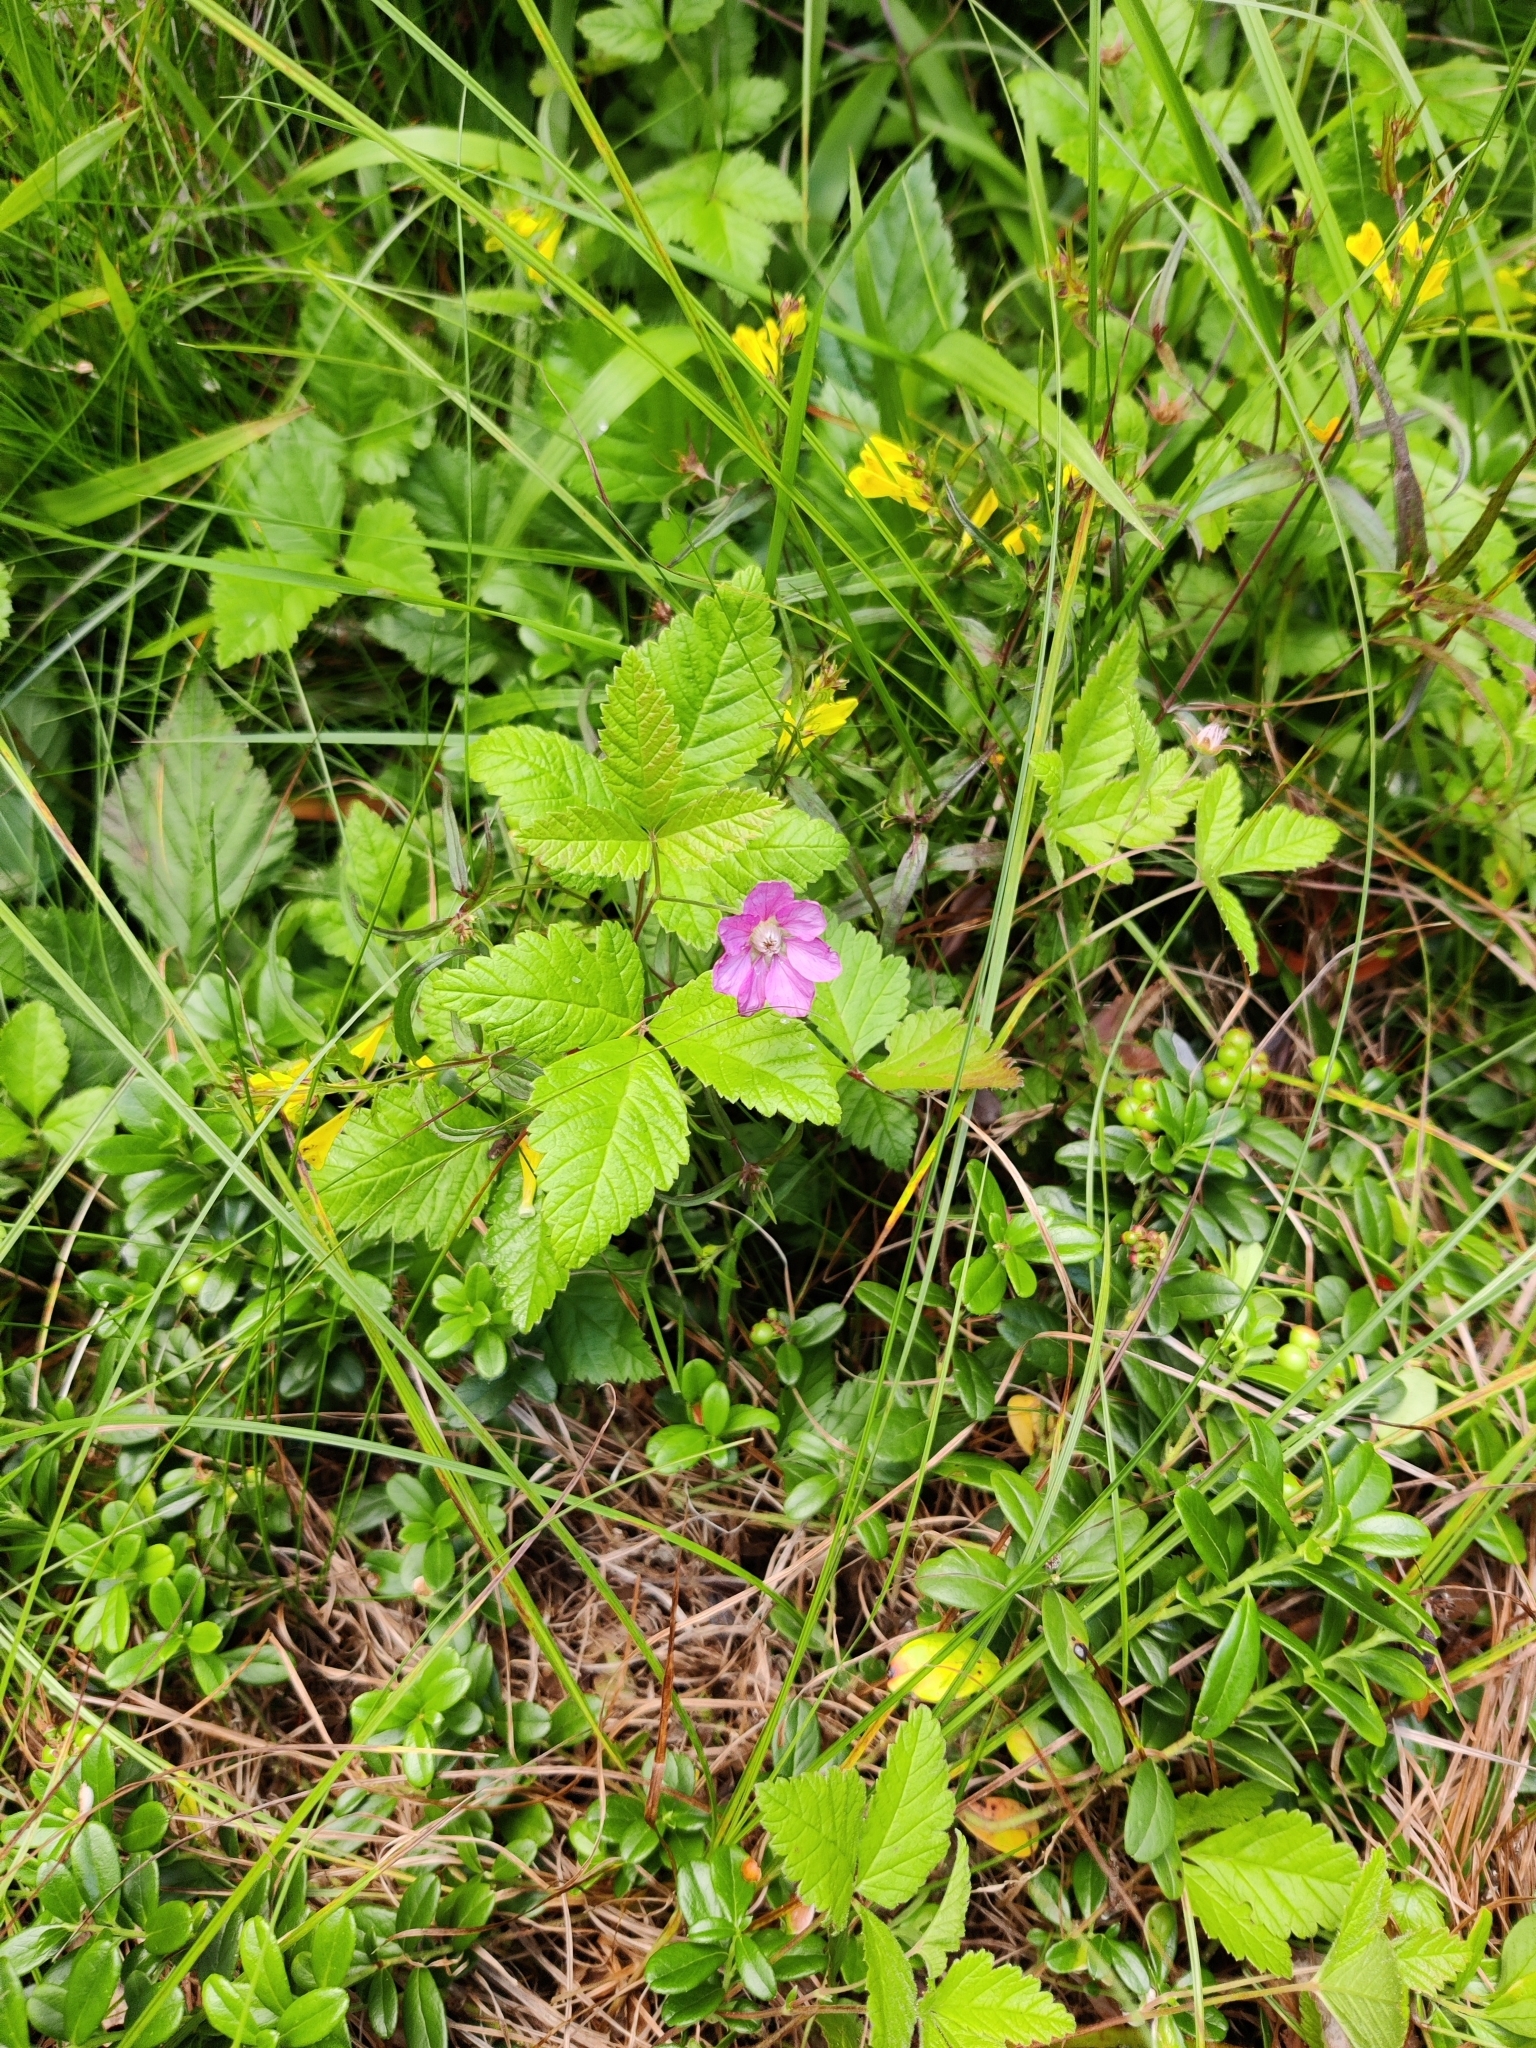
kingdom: Plantae
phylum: Tracheophyta
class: Magnoliopsida
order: Rosales
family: Rosaceae
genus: Rubus
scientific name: Rubus arcticus
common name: Arctic bramble
